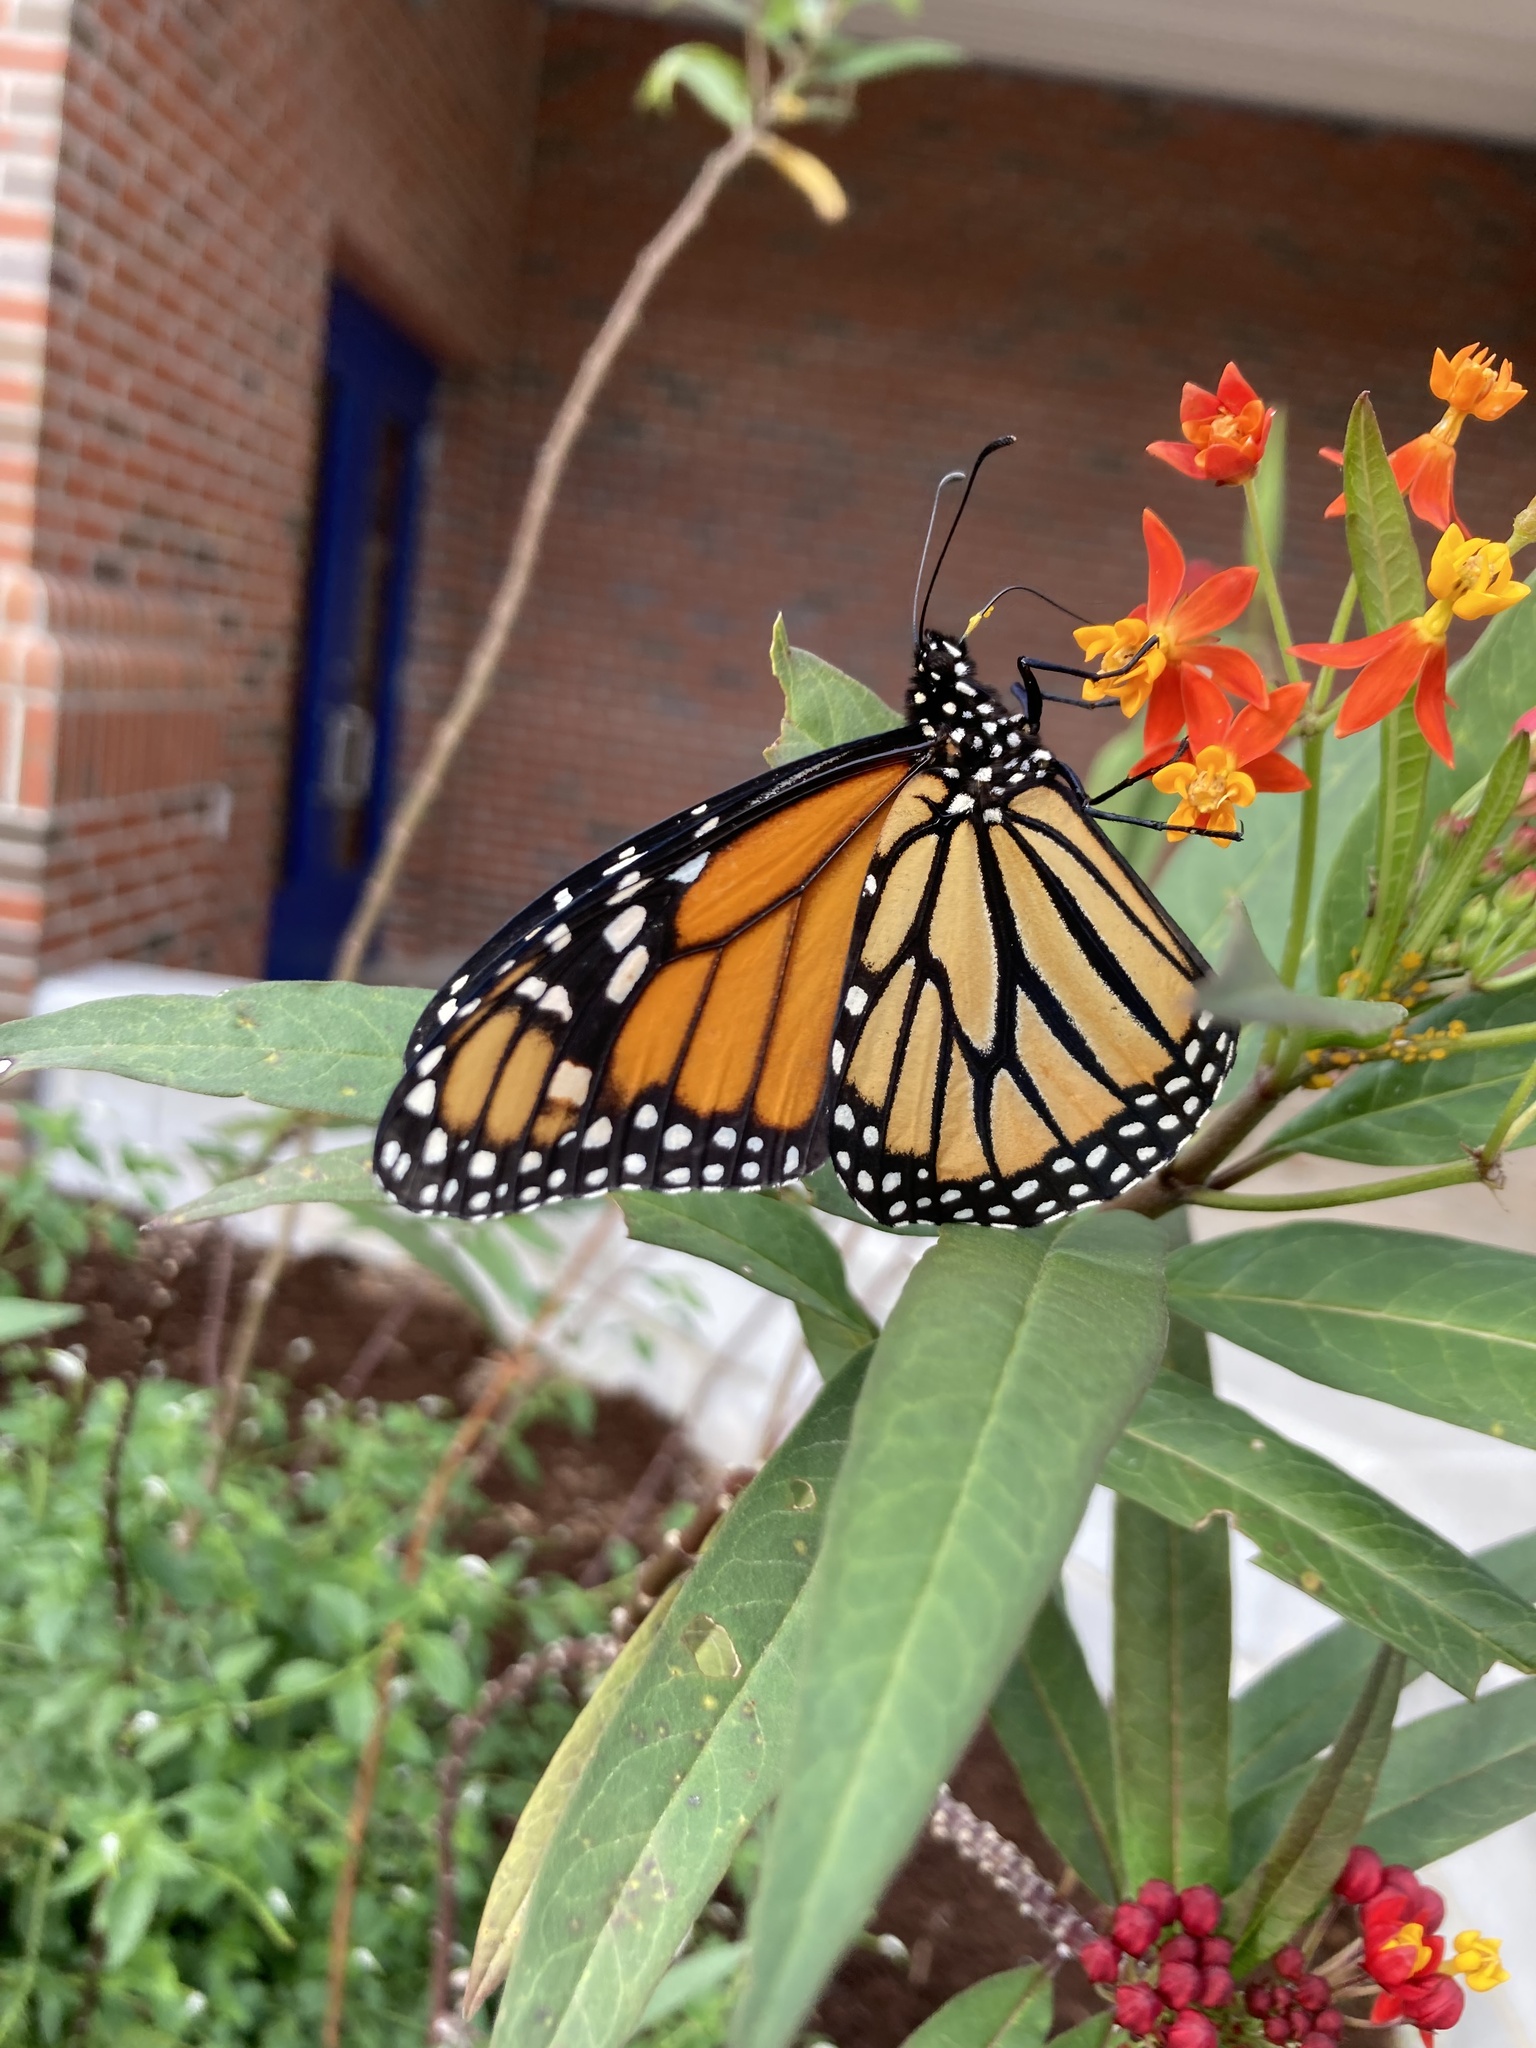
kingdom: Animalia
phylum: Arthropoda
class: Insecta
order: Lepidoptera
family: Nymphalidae
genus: Danaus
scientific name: Danaus plexippus
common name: Monarch
